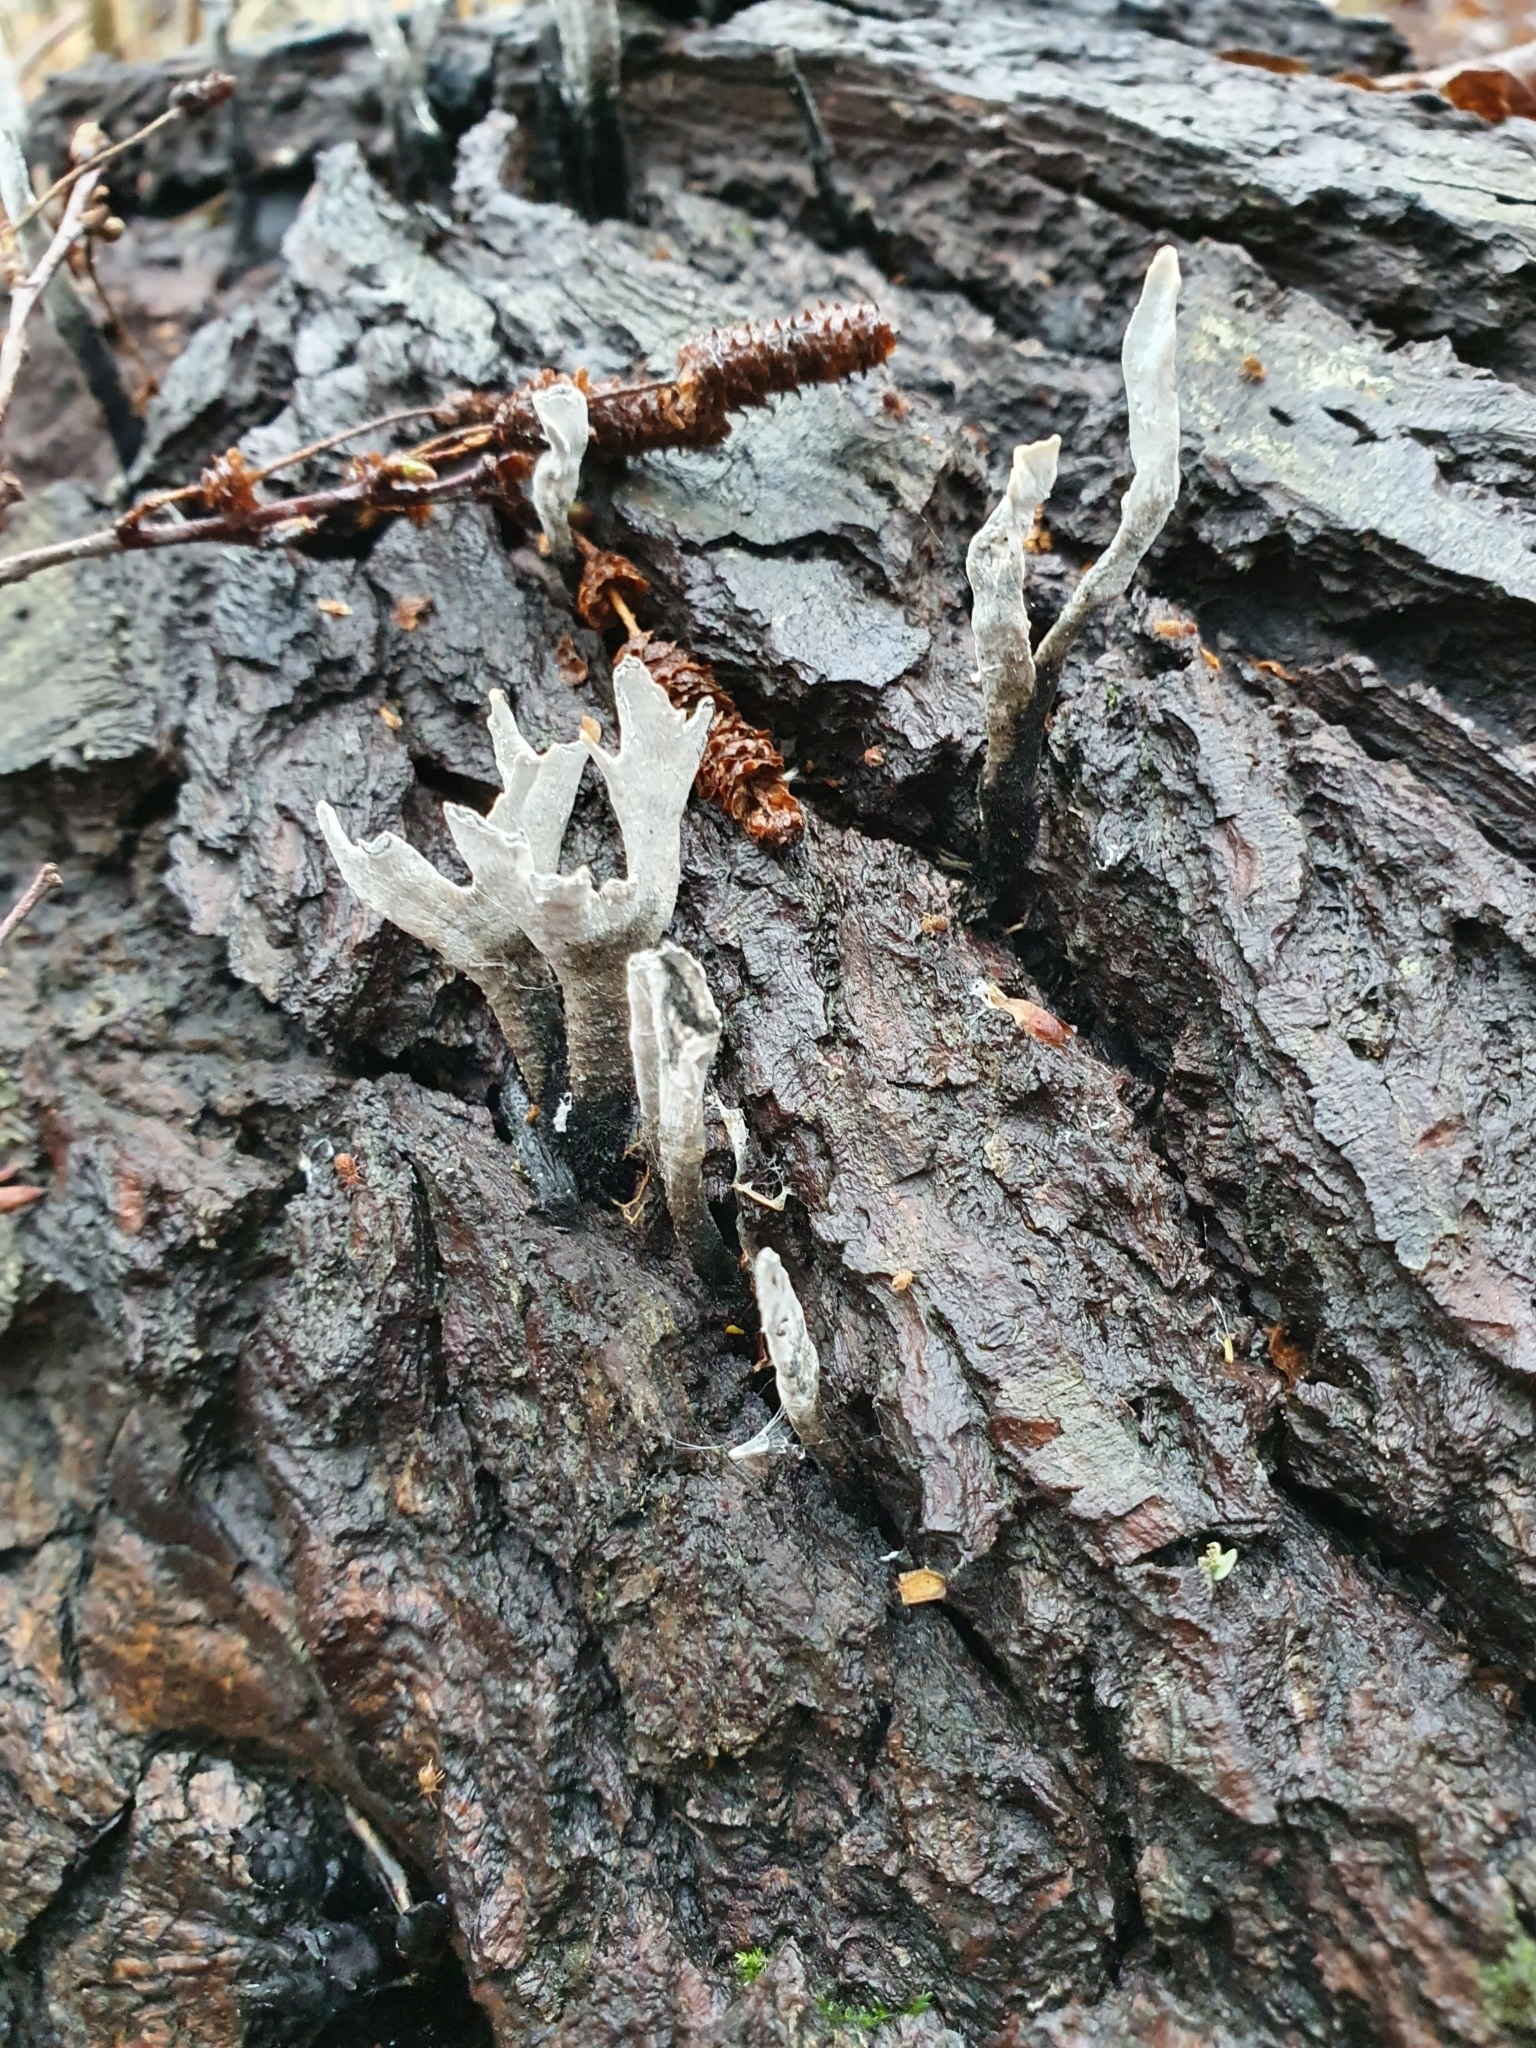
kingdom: Fungi
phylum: Ascomycota
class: Sordariomycetes
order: Xylariales
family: Xylariaceae
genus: Xylaria
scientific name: Xylaria hypoxylon
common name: Candle-snuff fungus
